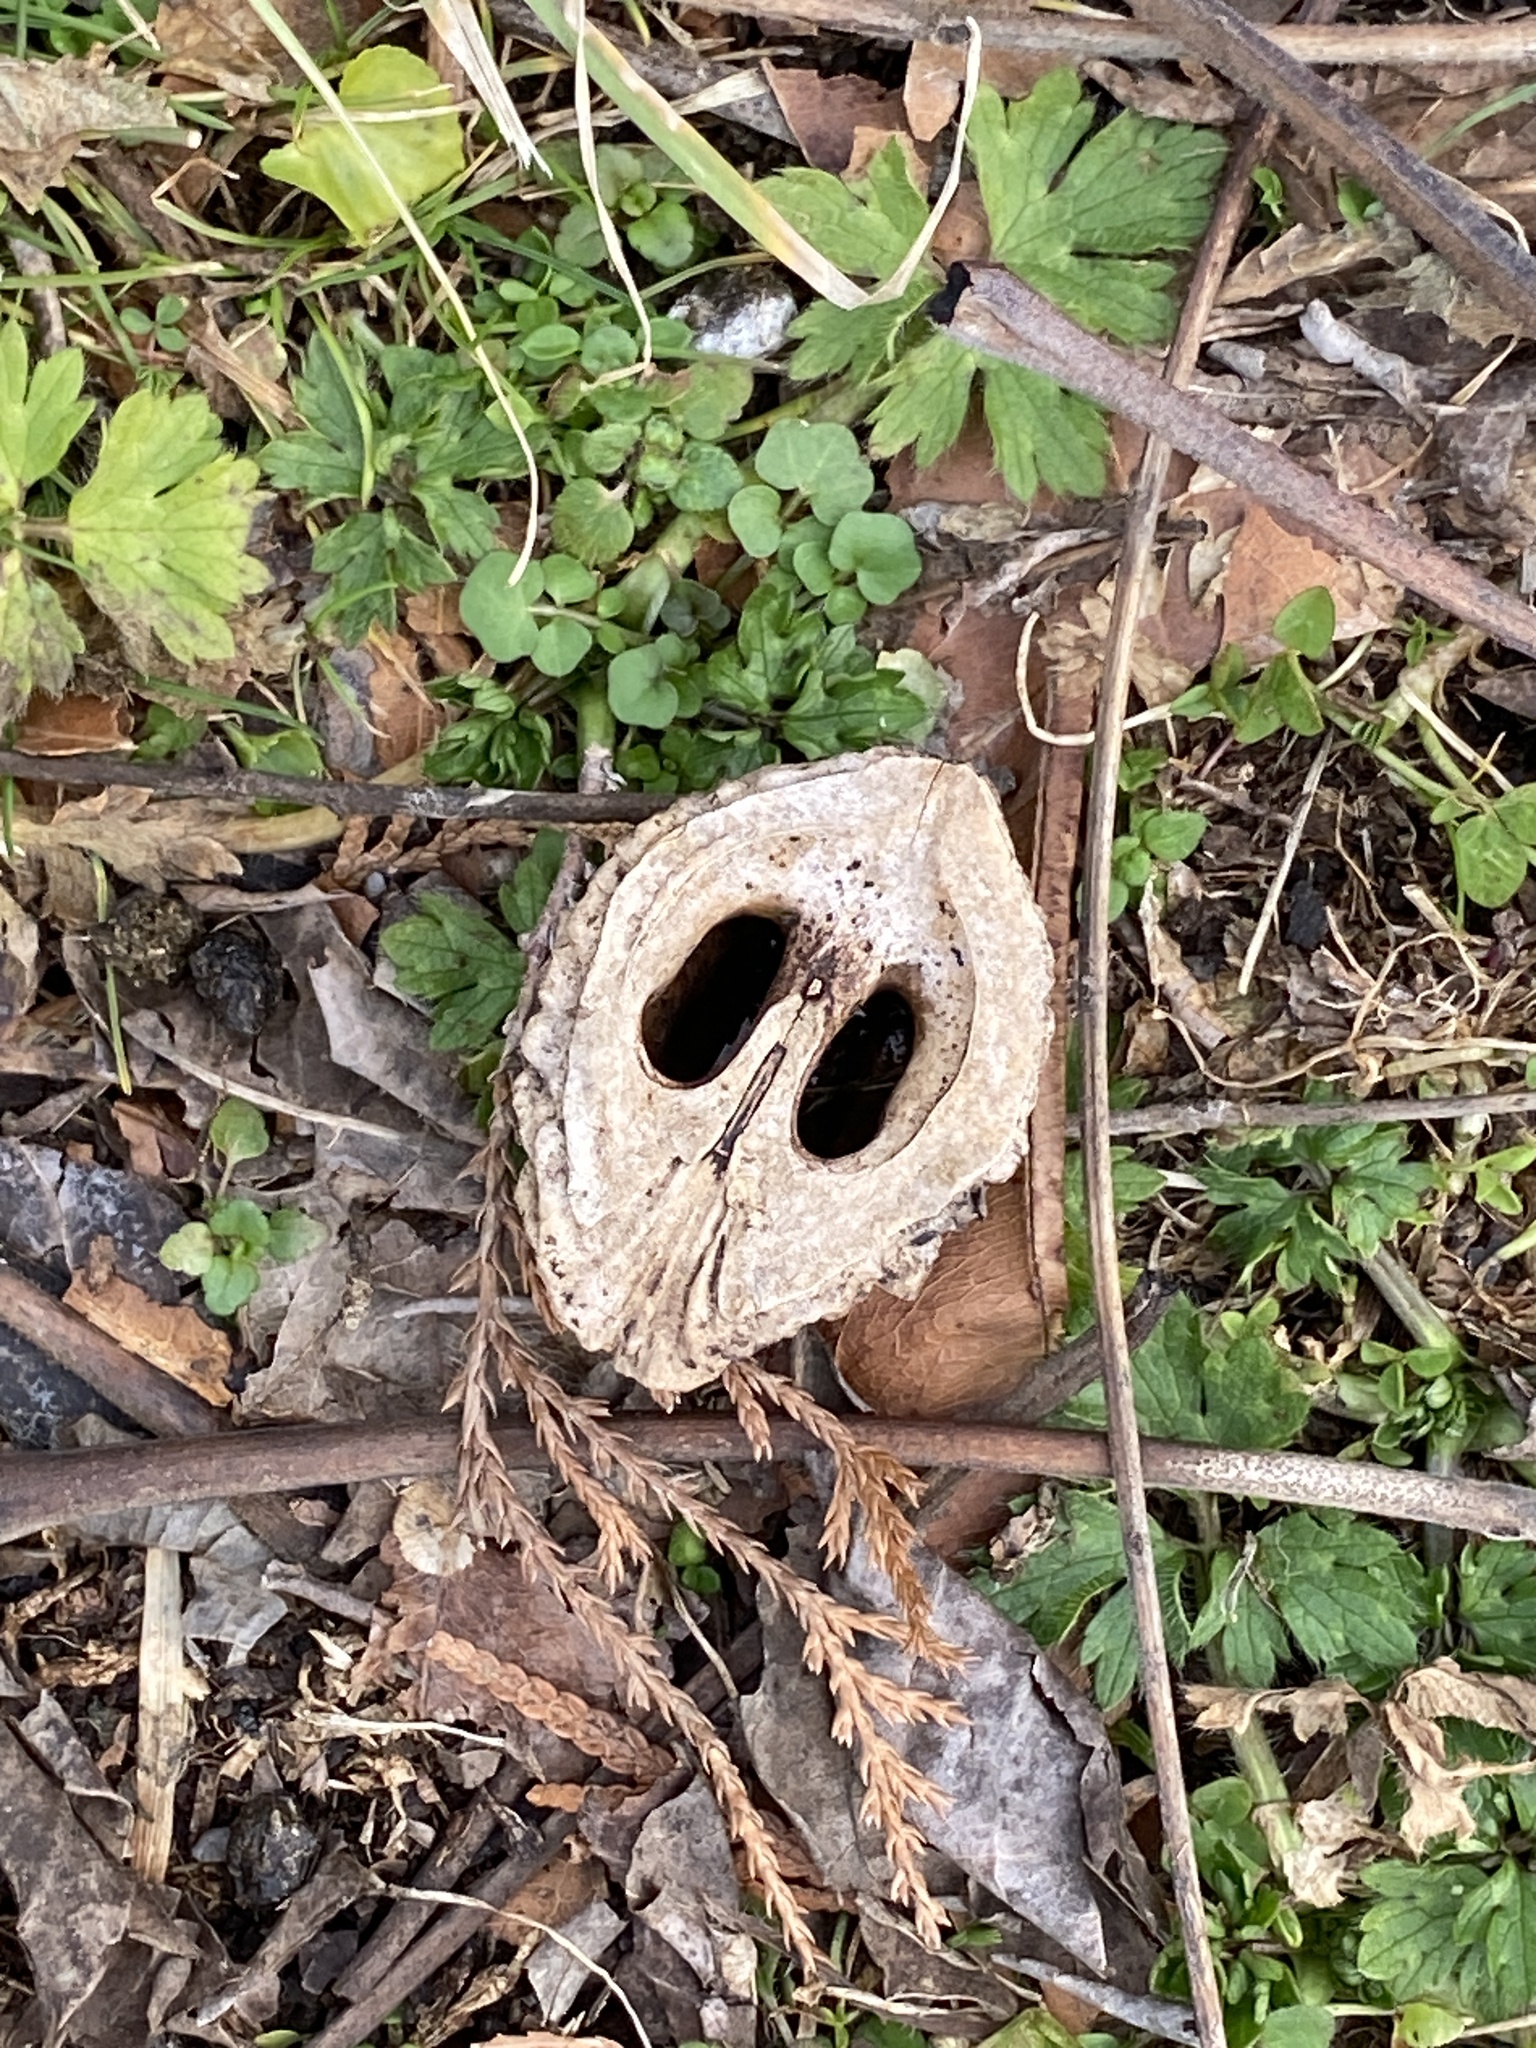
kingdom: Plantae
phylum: Tracheophyta
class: Magnoliopsida
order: Fagales
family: Juglandaceae
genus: Juglans
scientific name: Juglans nigra
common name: Black walnut
